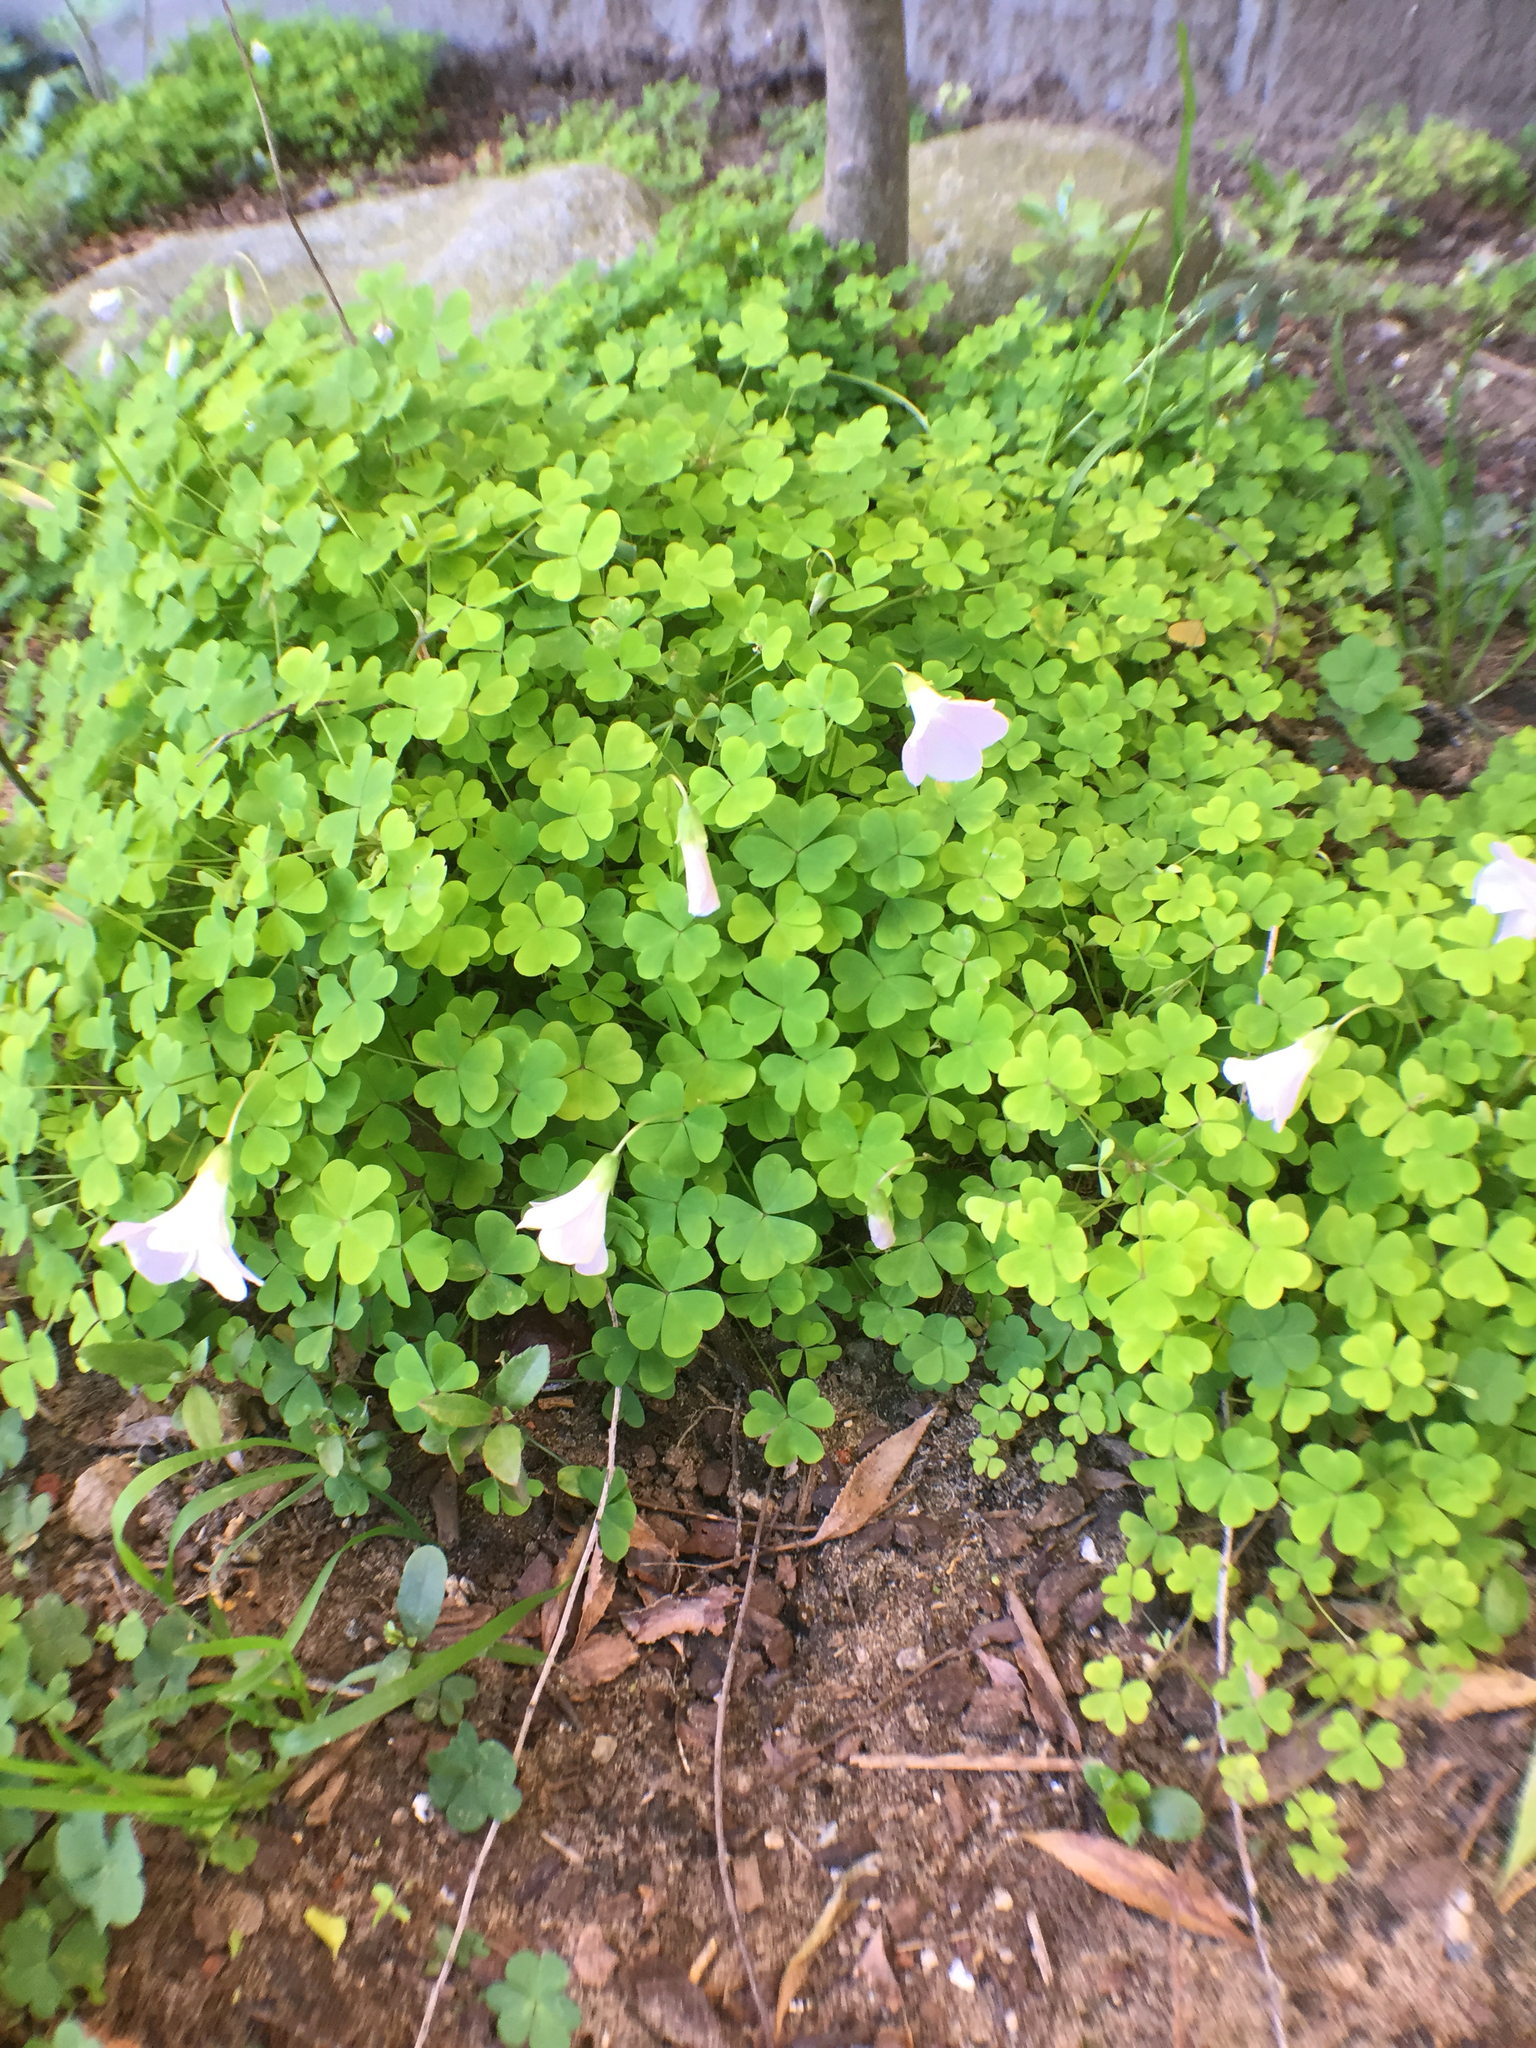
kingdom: Plantae
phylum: Tracheophyta
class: Magnoliopsida
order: Oxalidales
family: Oxalidaceae
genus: Oxalis
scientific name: Oxalis incarnata
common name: Pale pink-sorrel
